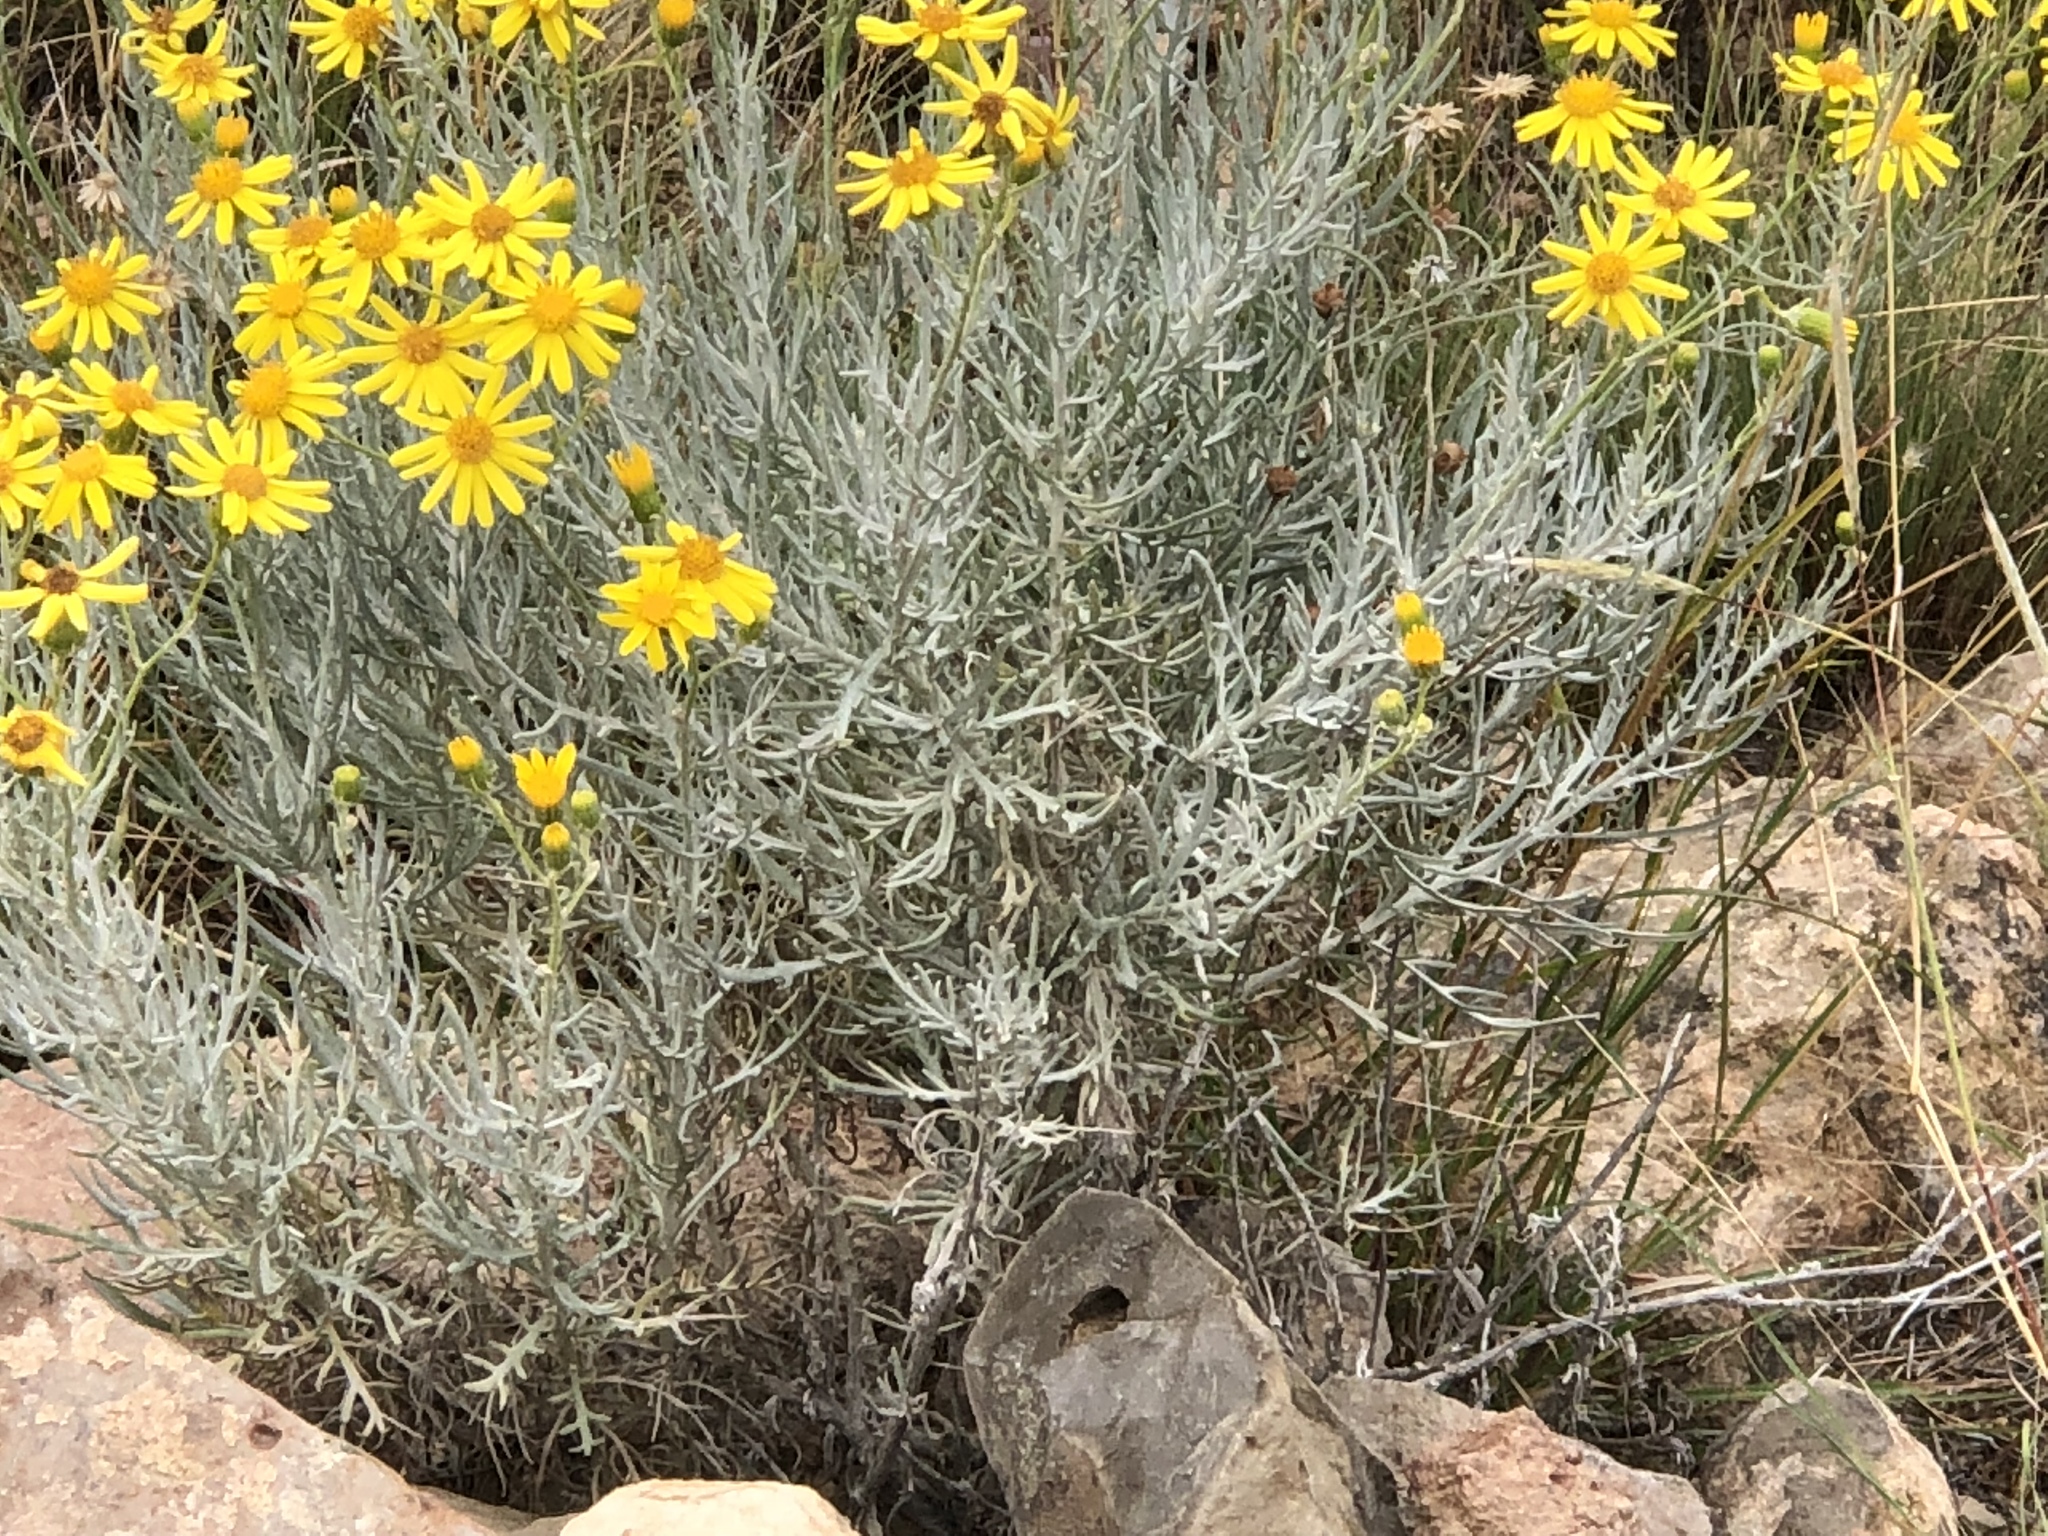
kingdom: Plantae
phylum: Tracheophyta
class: Magnoliopsida
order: Asterales
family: Asteraceae
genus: Senecio
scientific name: Senecio flaccidus
